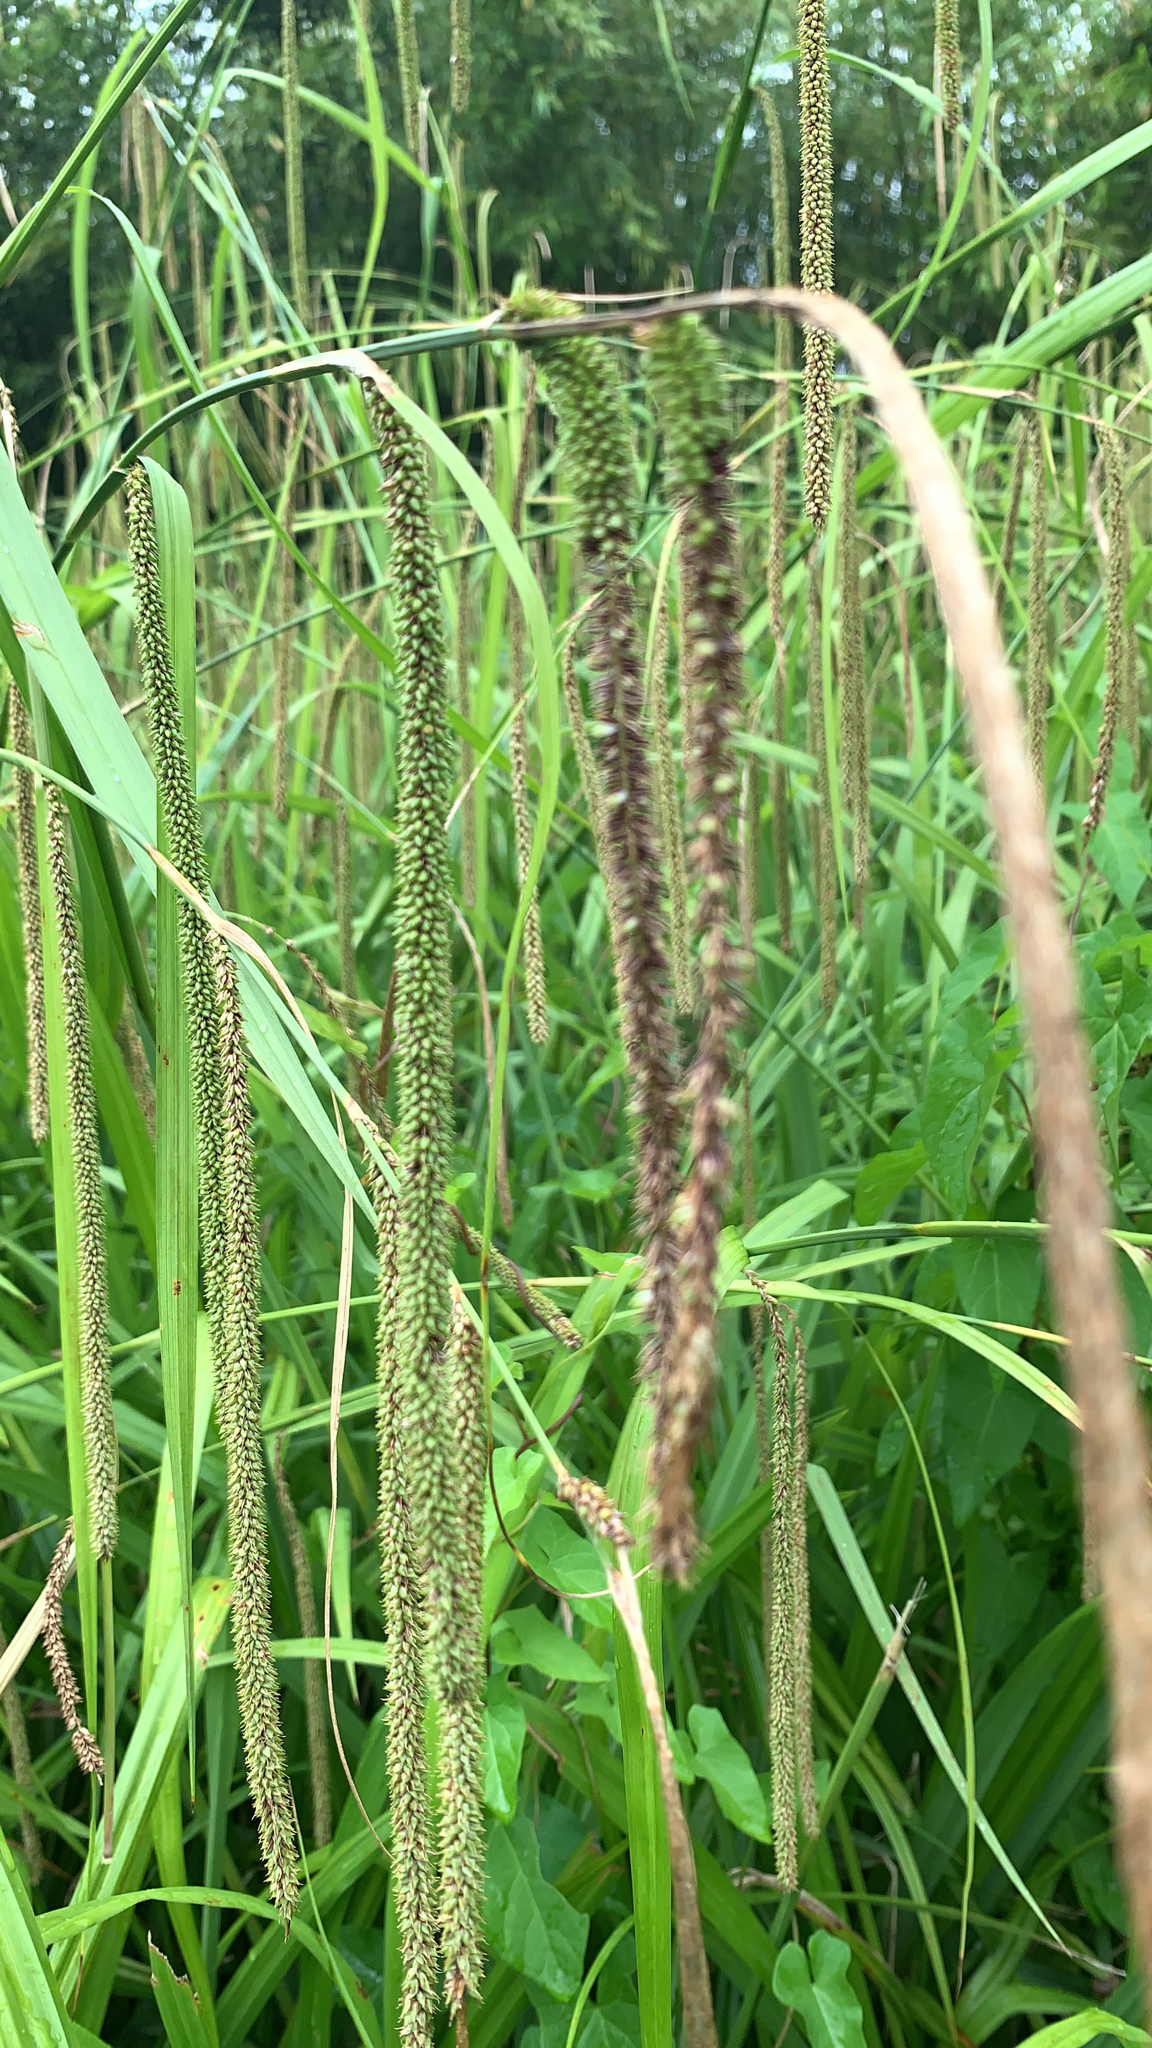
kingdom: Plantae
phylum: Tracheophyta
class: Liliopsida
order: Poales
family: Cyperaceae
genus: Carex
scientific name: Carex pendula
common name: Pendulous sedge
